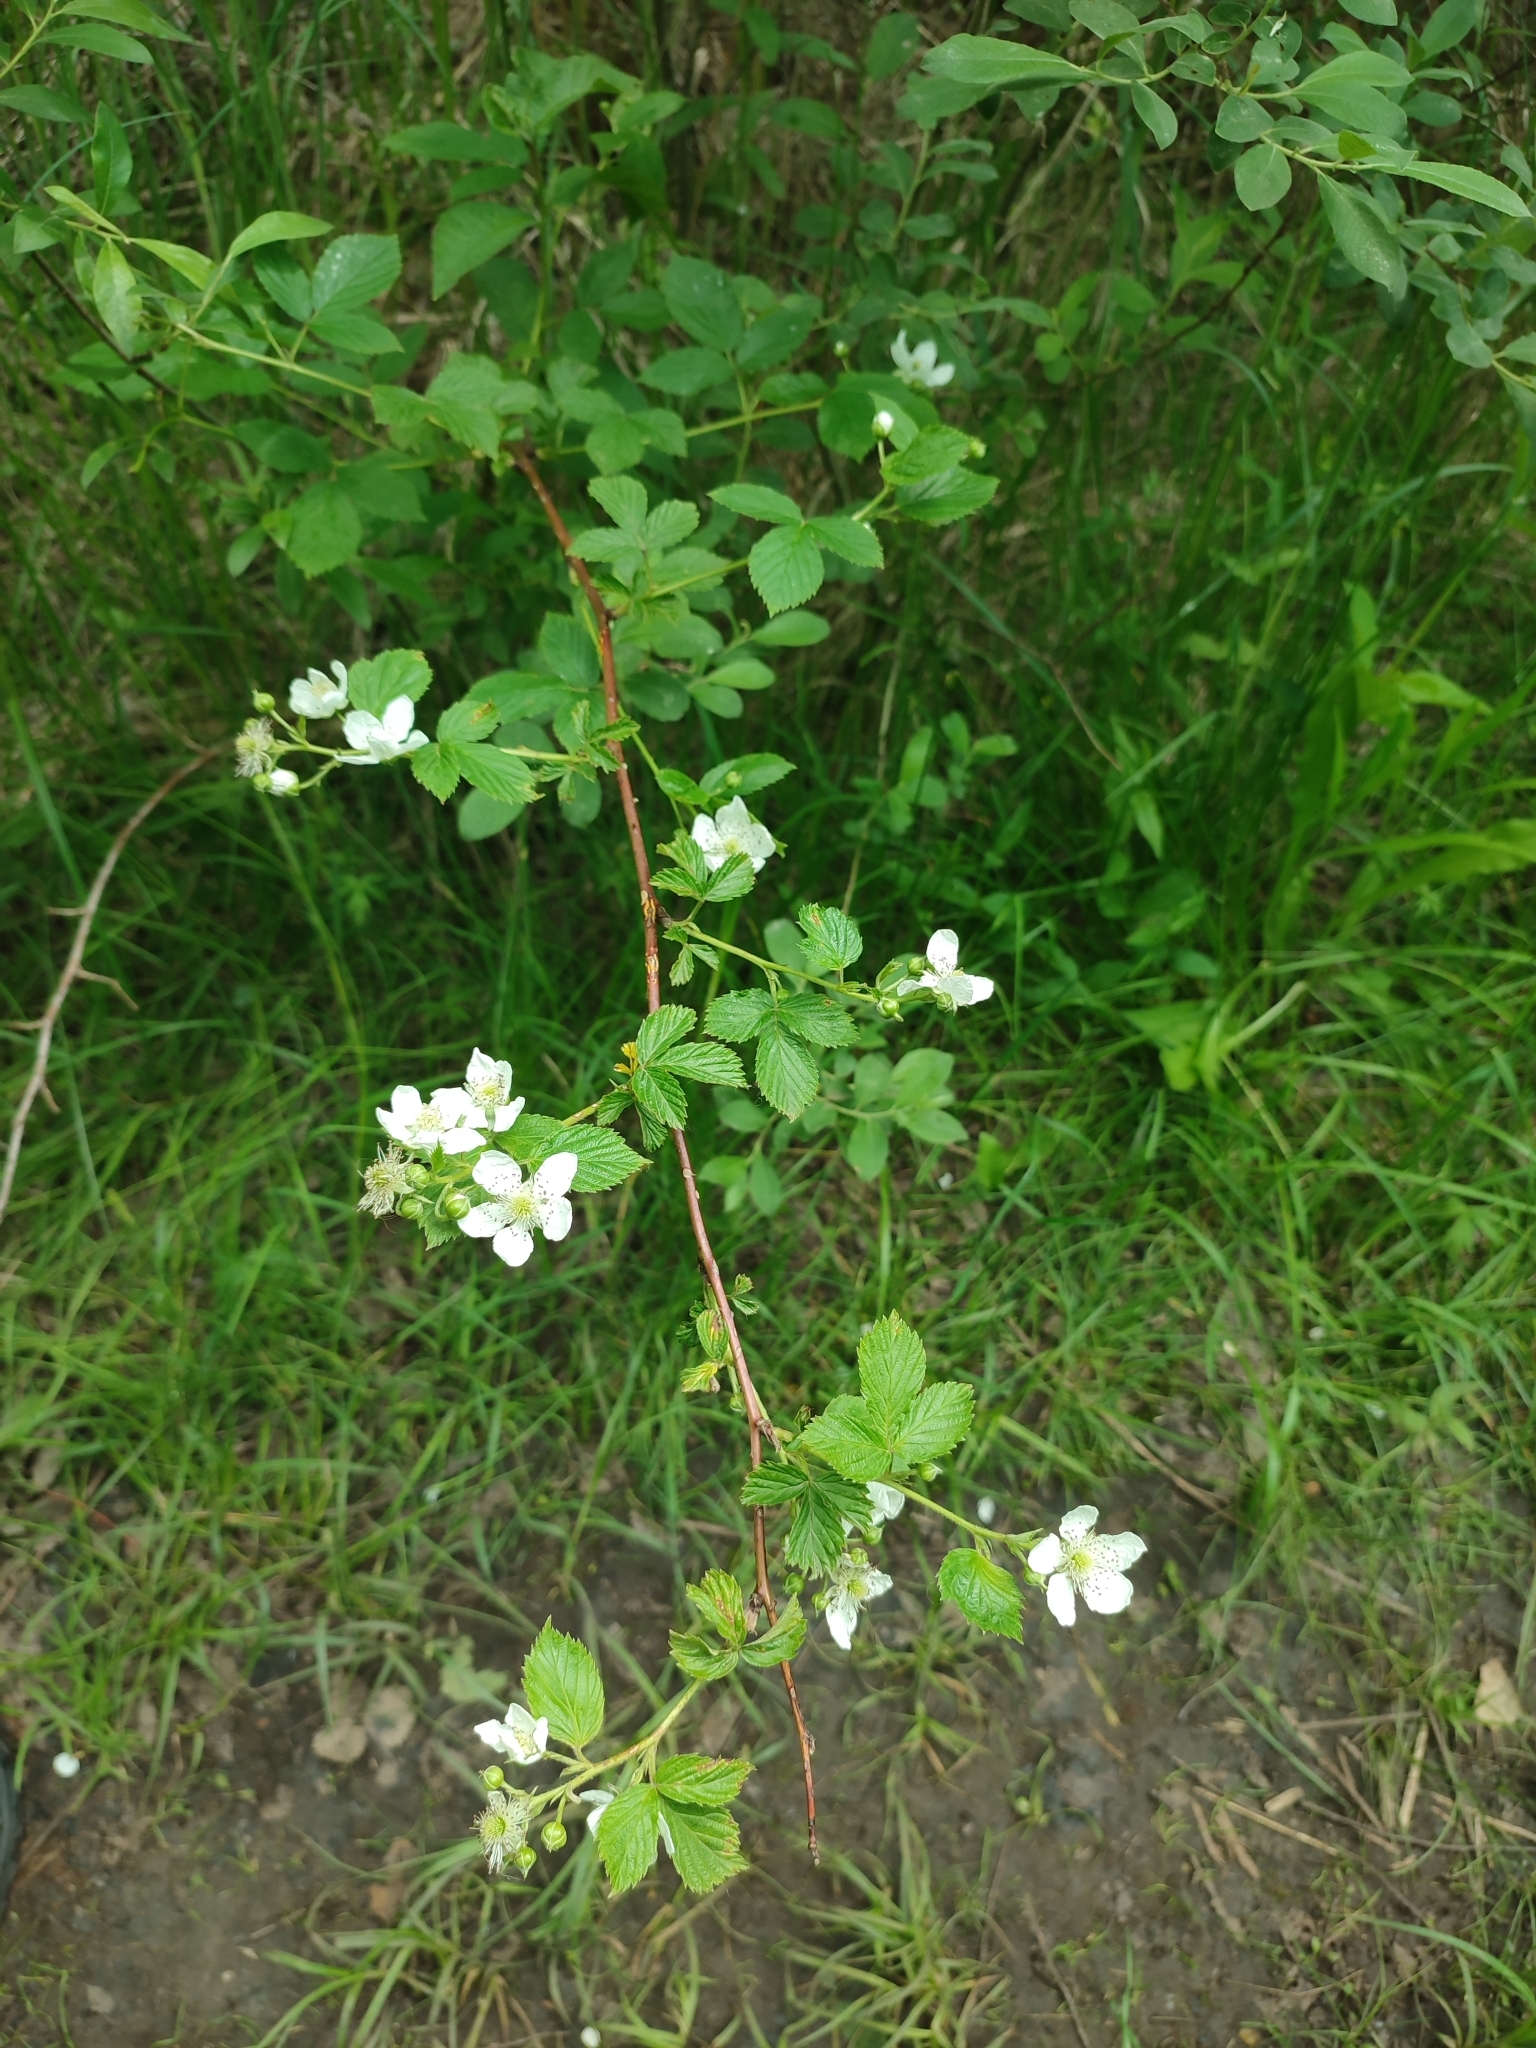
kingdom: Plantae
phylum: Tracheophyta
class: Magnoliopsida
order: Rosales
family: Rosaceae
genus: Rubus
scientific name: Rubus polonicus
